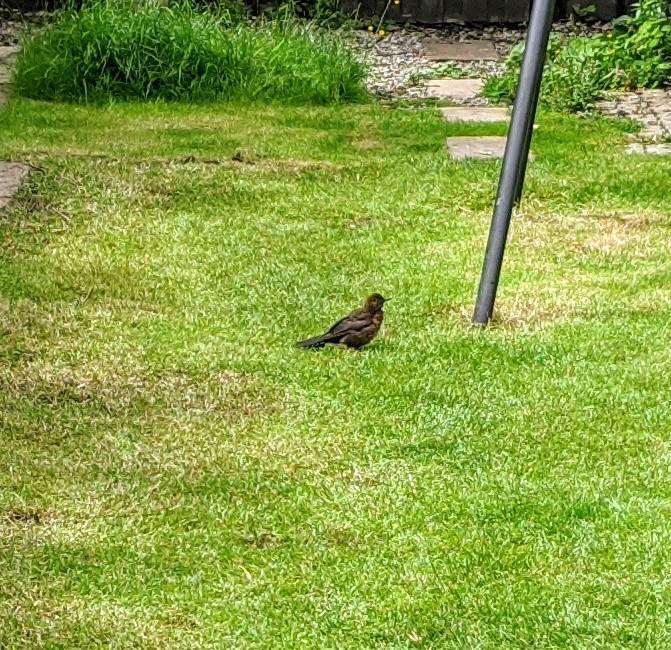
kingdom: Animalia
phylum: Chordata
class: Aves
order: Passeriformes
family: Turdidae
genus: Turdus
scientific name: Turdus merula
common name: Common blackbird
